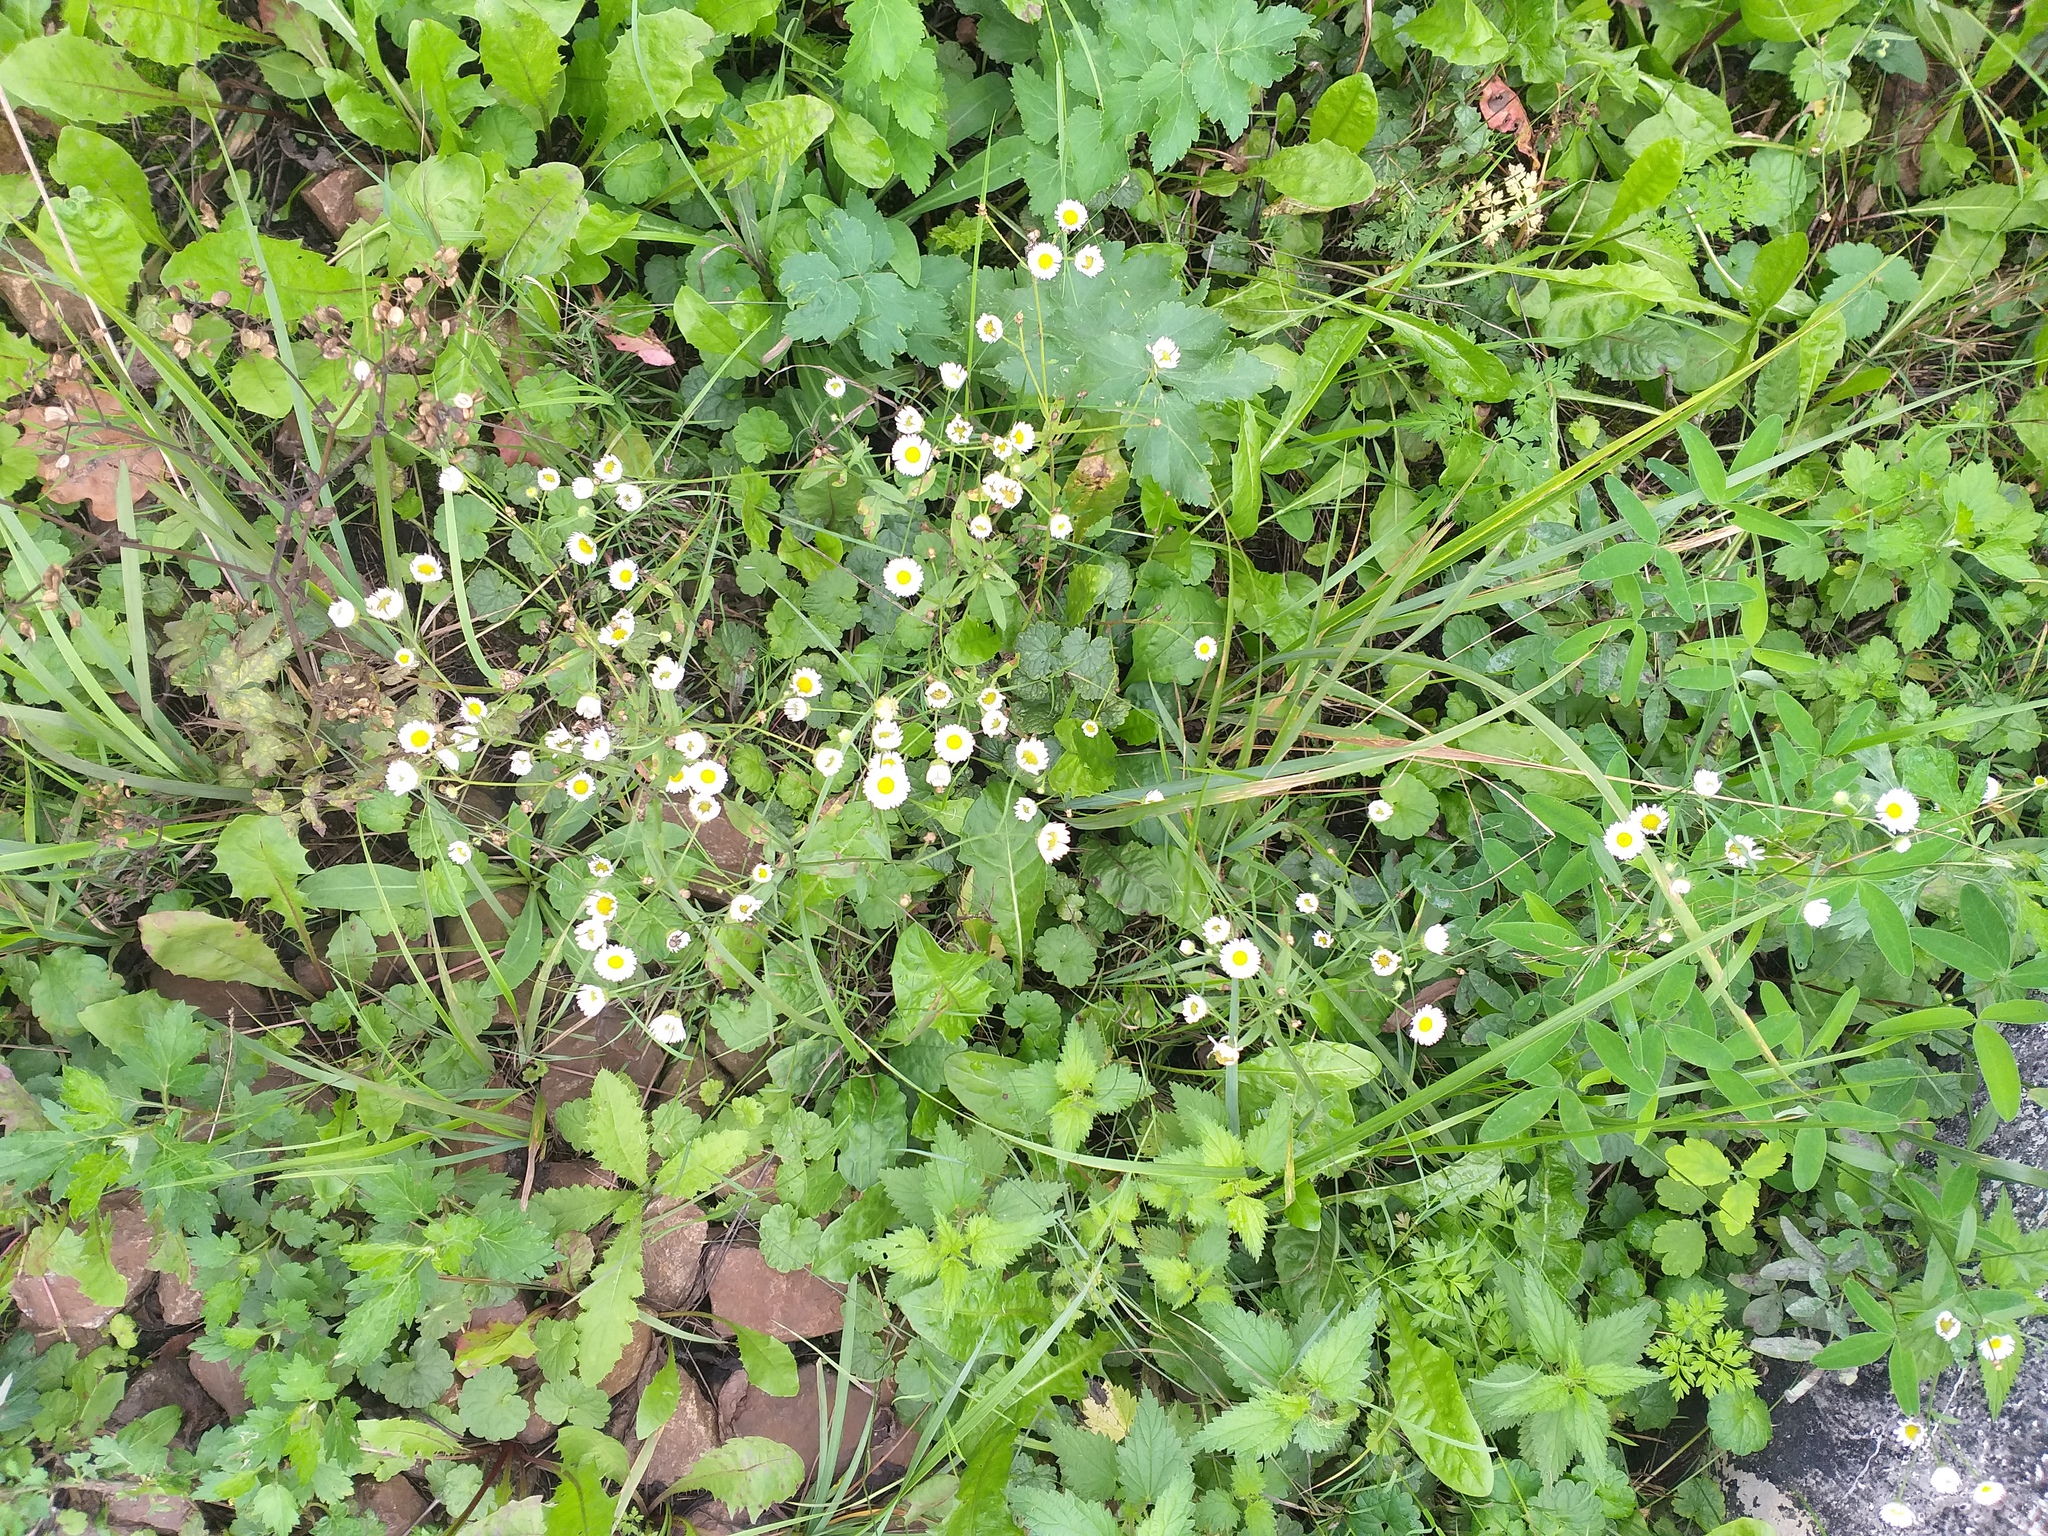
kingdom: Plantae
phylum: Tracheophyta
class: Magnoliopsida
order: Asterales
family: Asteraceae
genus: Erigeron
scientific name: Erigeron annuus
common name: Tall fleabane
